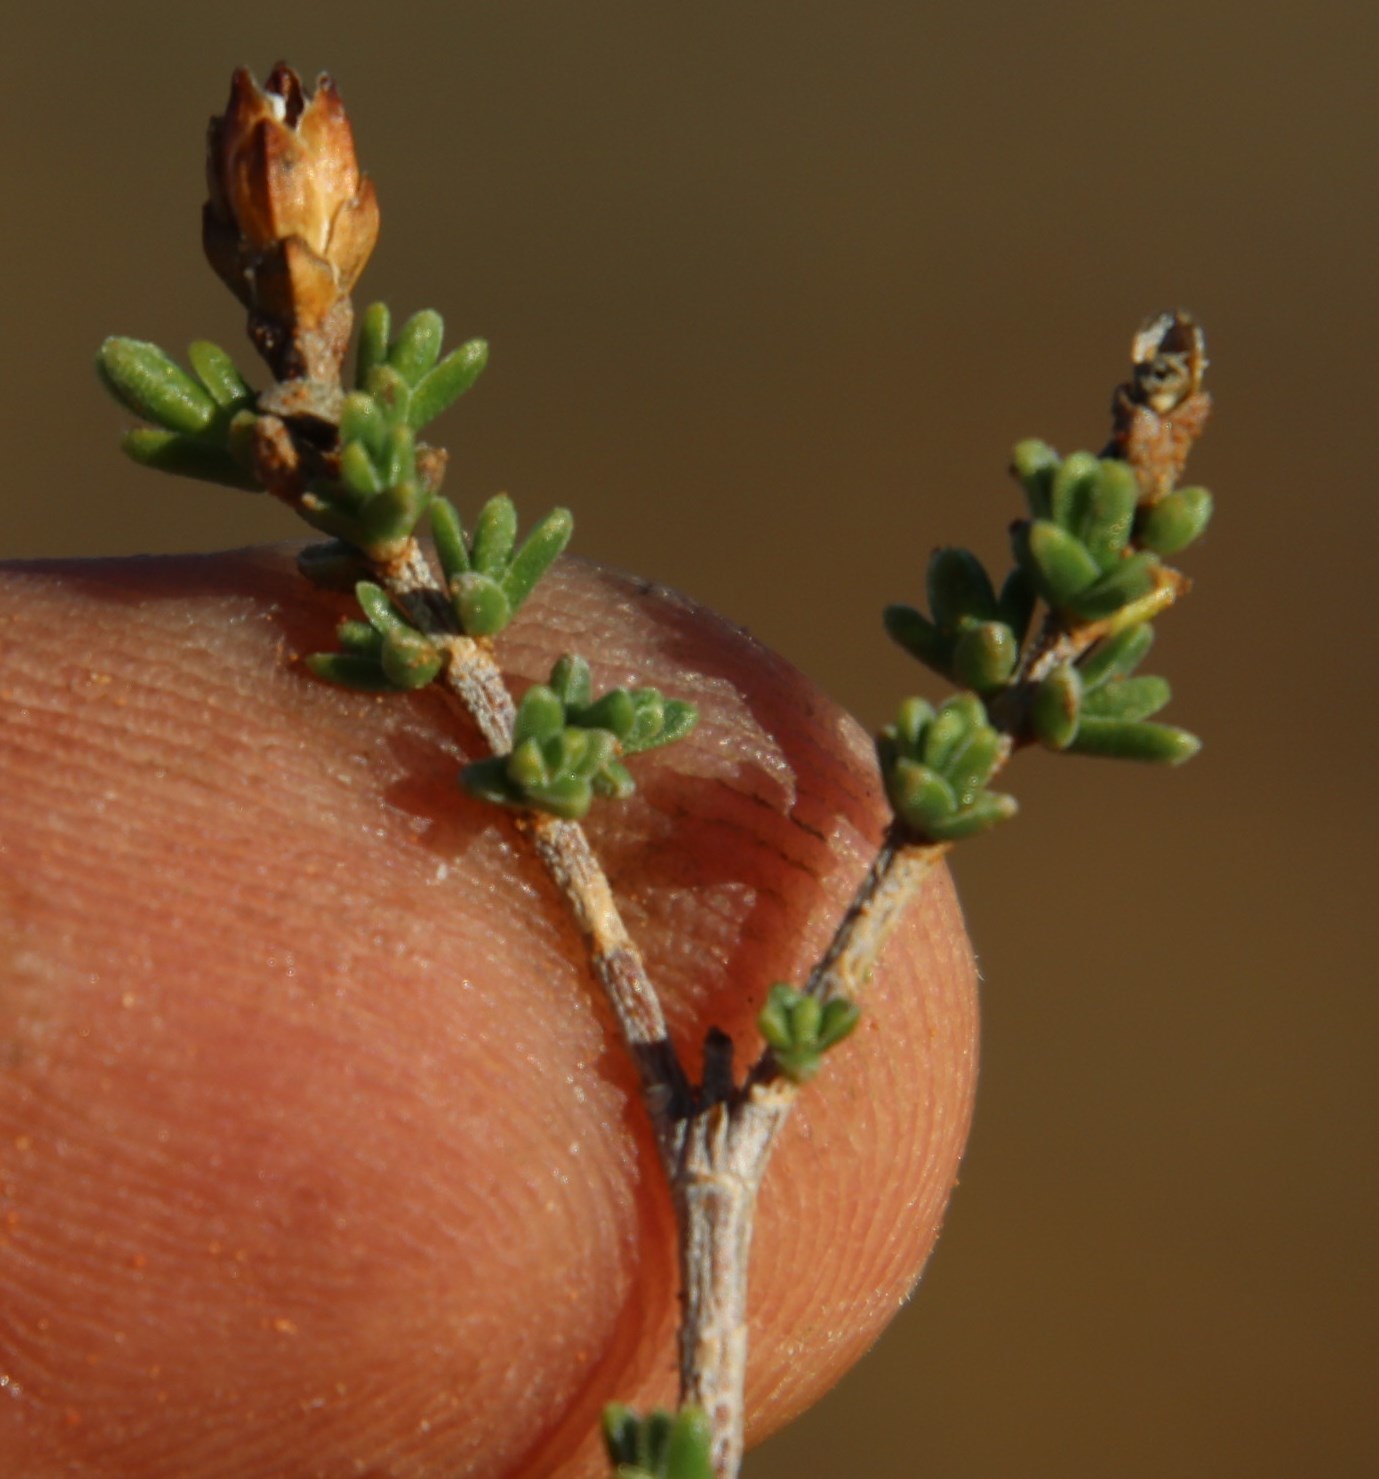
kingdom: Plantae
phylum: Tracheophyta
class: Magnoliopsida
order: Asterales
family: Asteraceae
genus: Pteronia
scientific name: Pteronia glomerata
